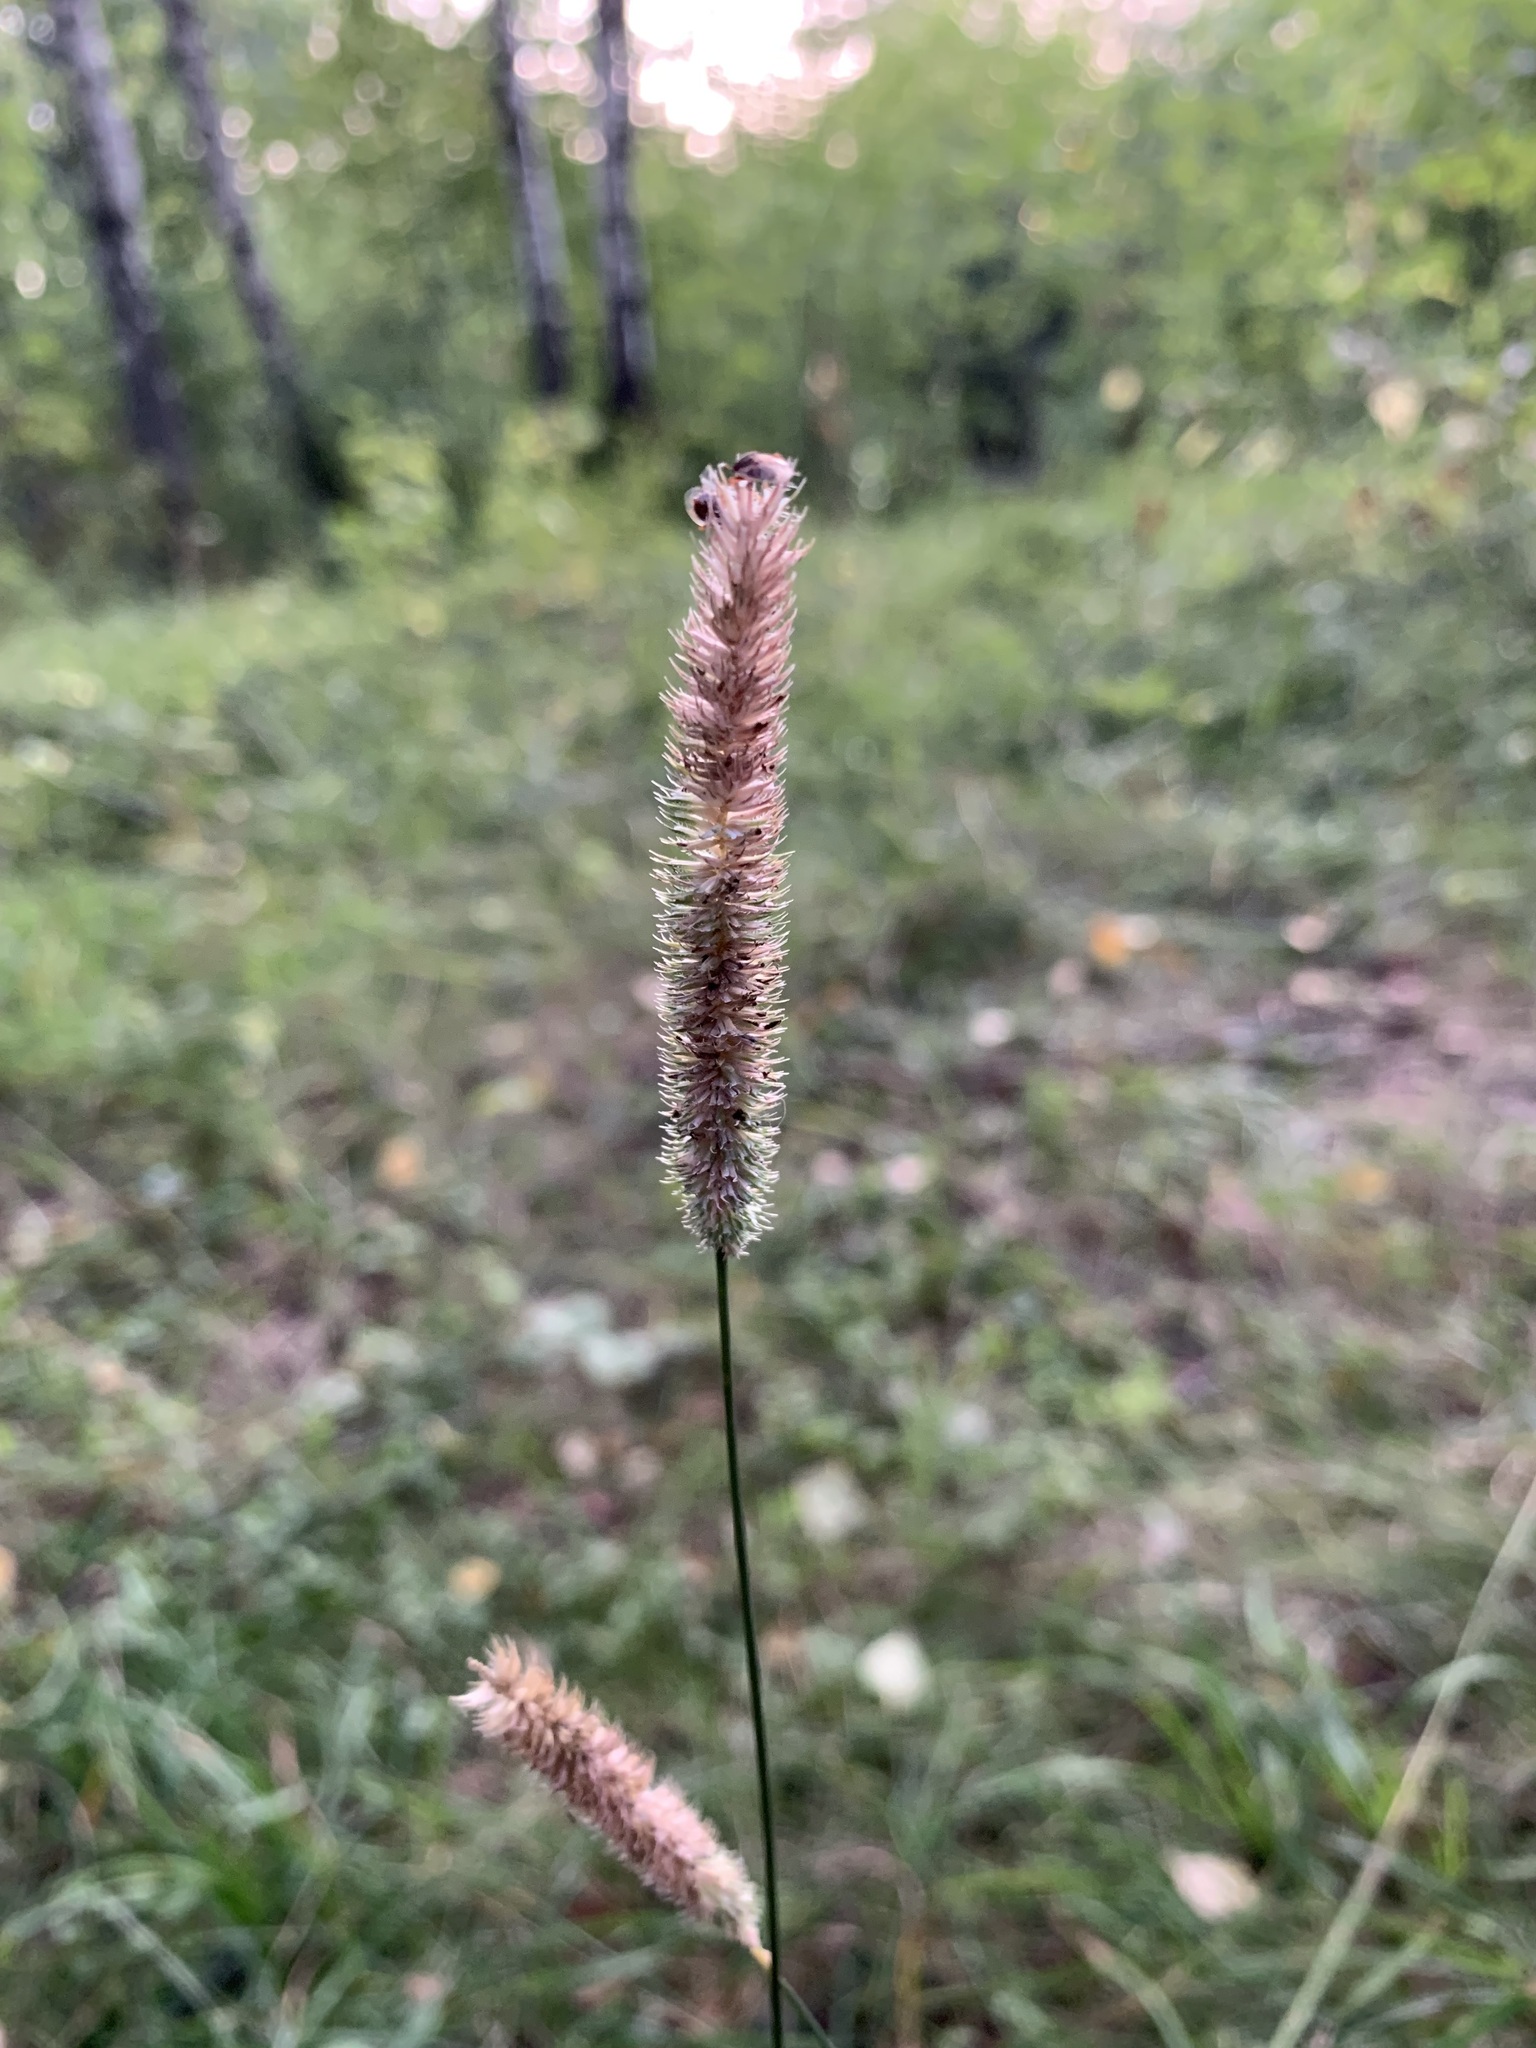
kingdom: Plantae
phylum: Tracheophyta
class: Liliopsida
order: Poales
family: Poaceae
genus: Phleum
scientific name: Phleum pratense
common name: Timothy grass
